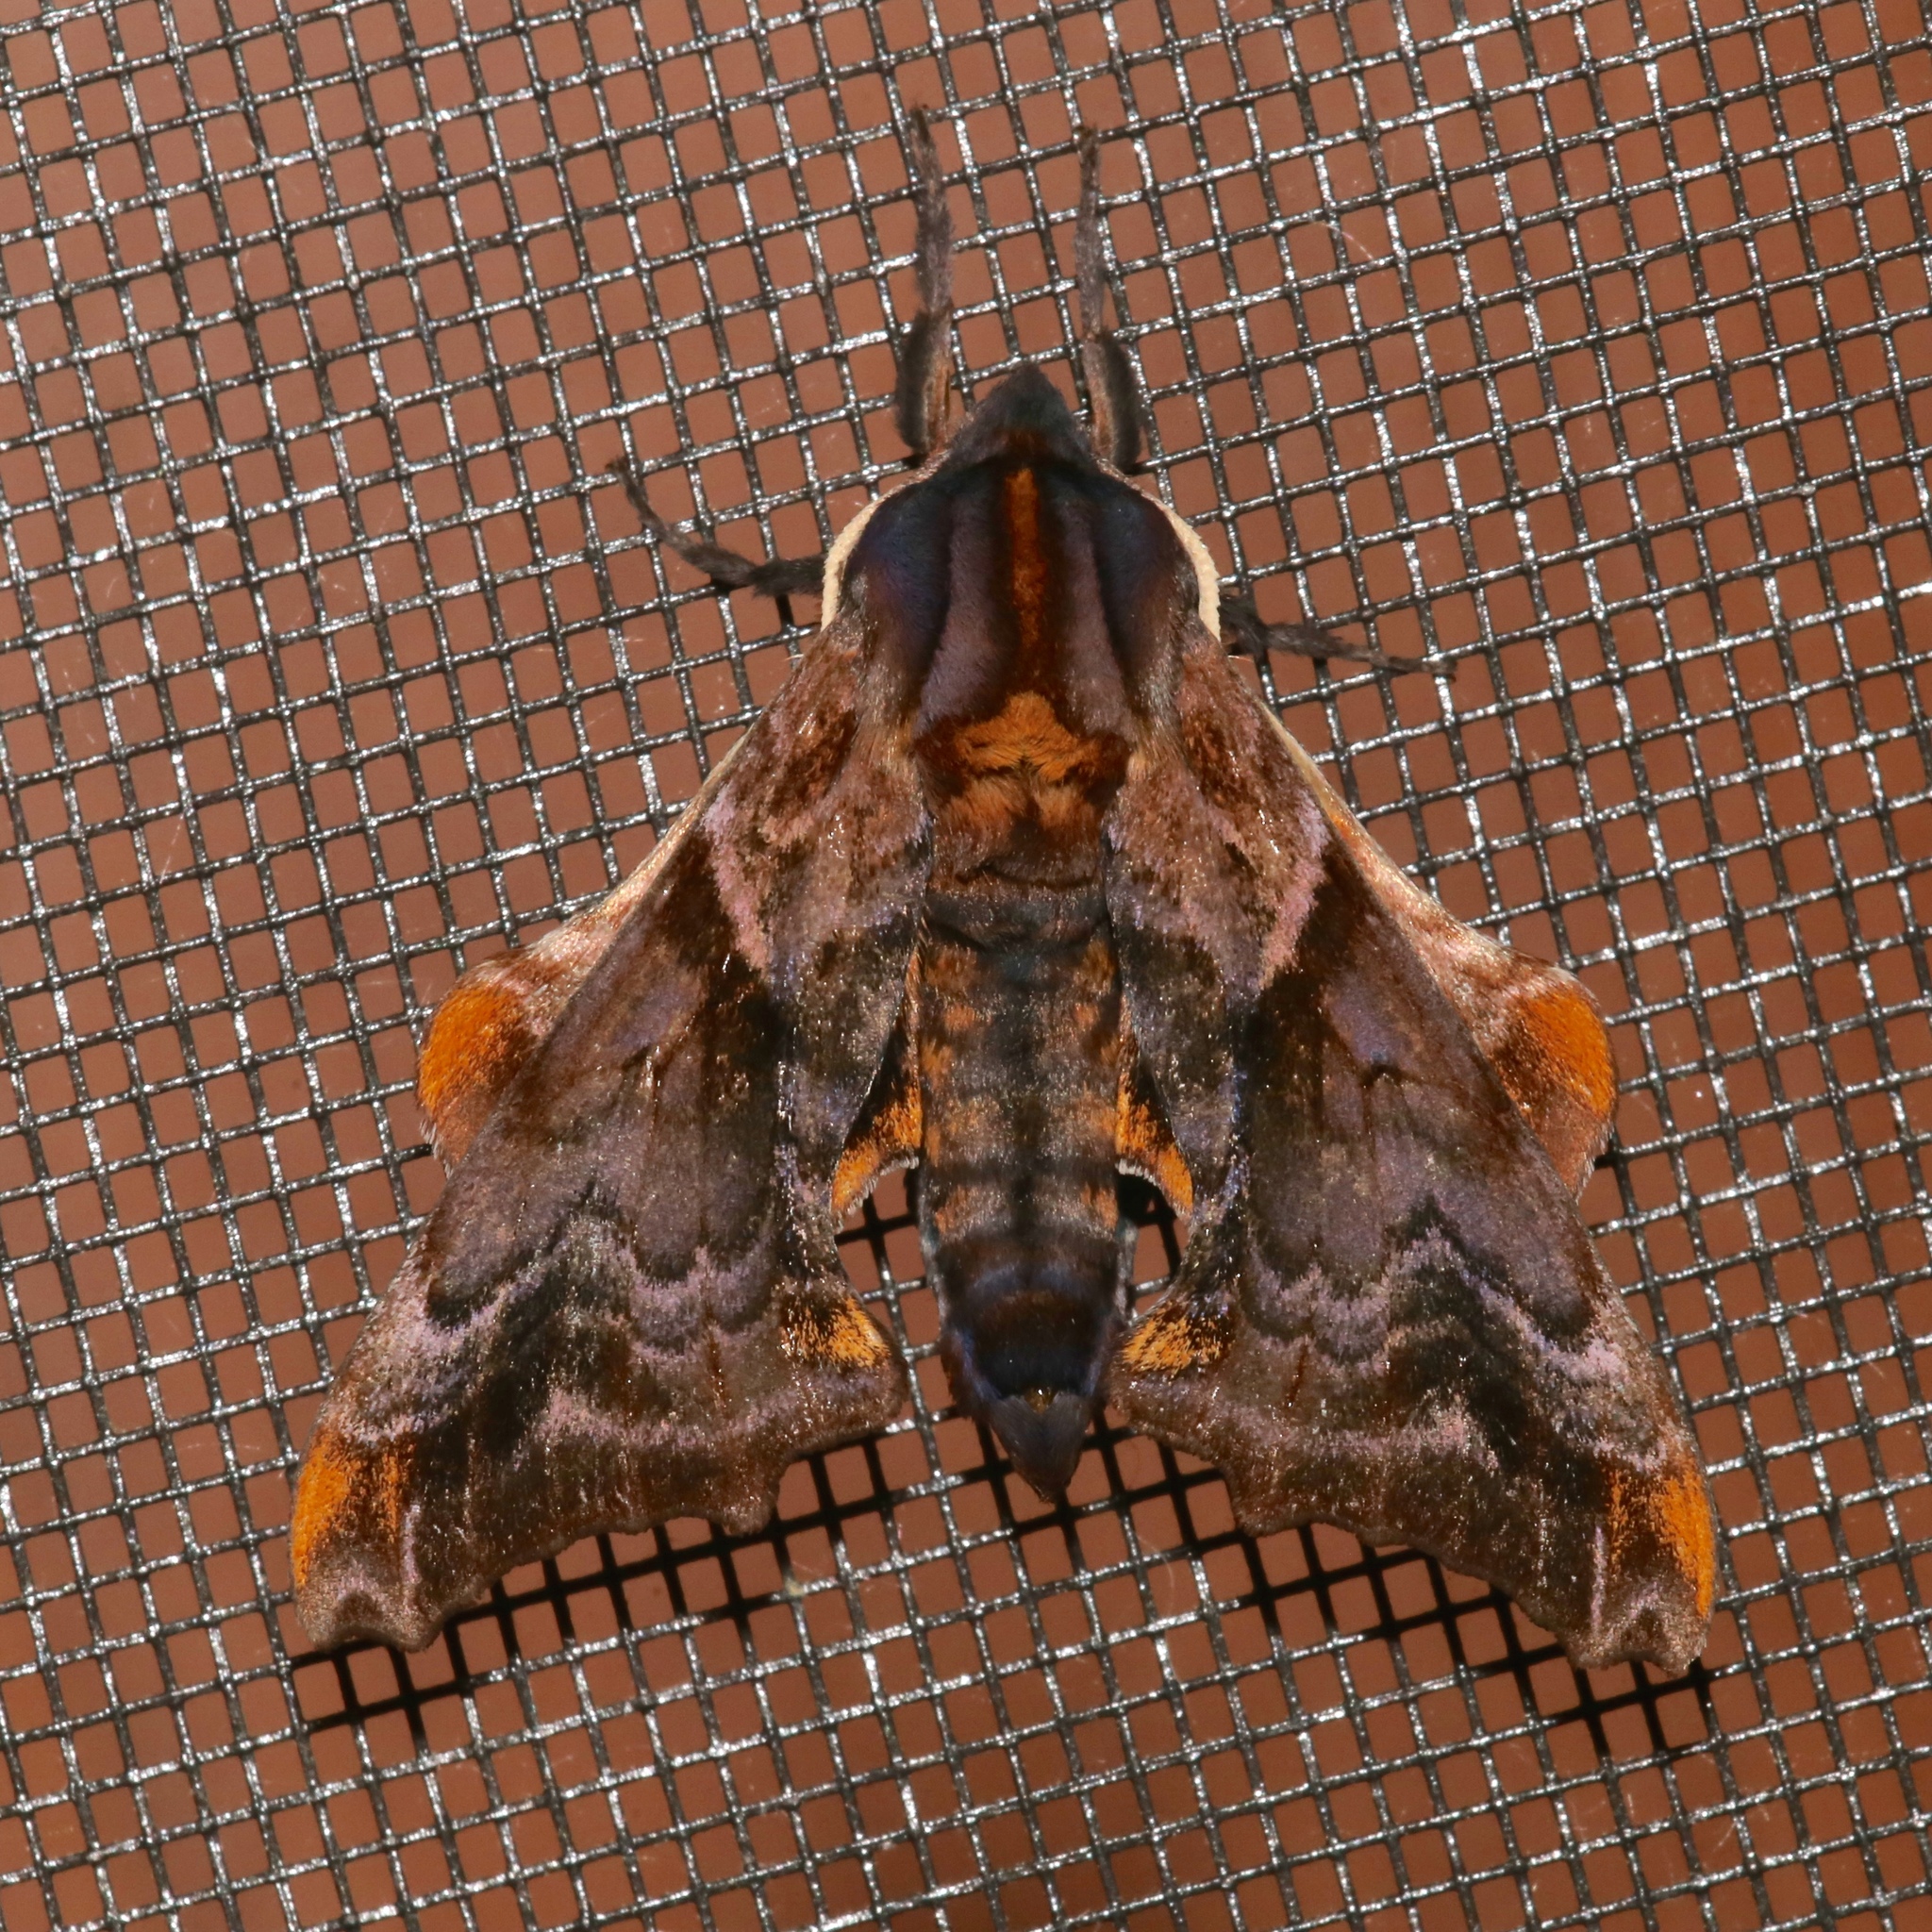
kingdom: Animalia
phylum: Arthropoda
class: Insecta
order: Lepidoptera
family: Sphingidae
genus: Paonias
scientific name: Paonias myops
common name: Small-eyed sphinx
